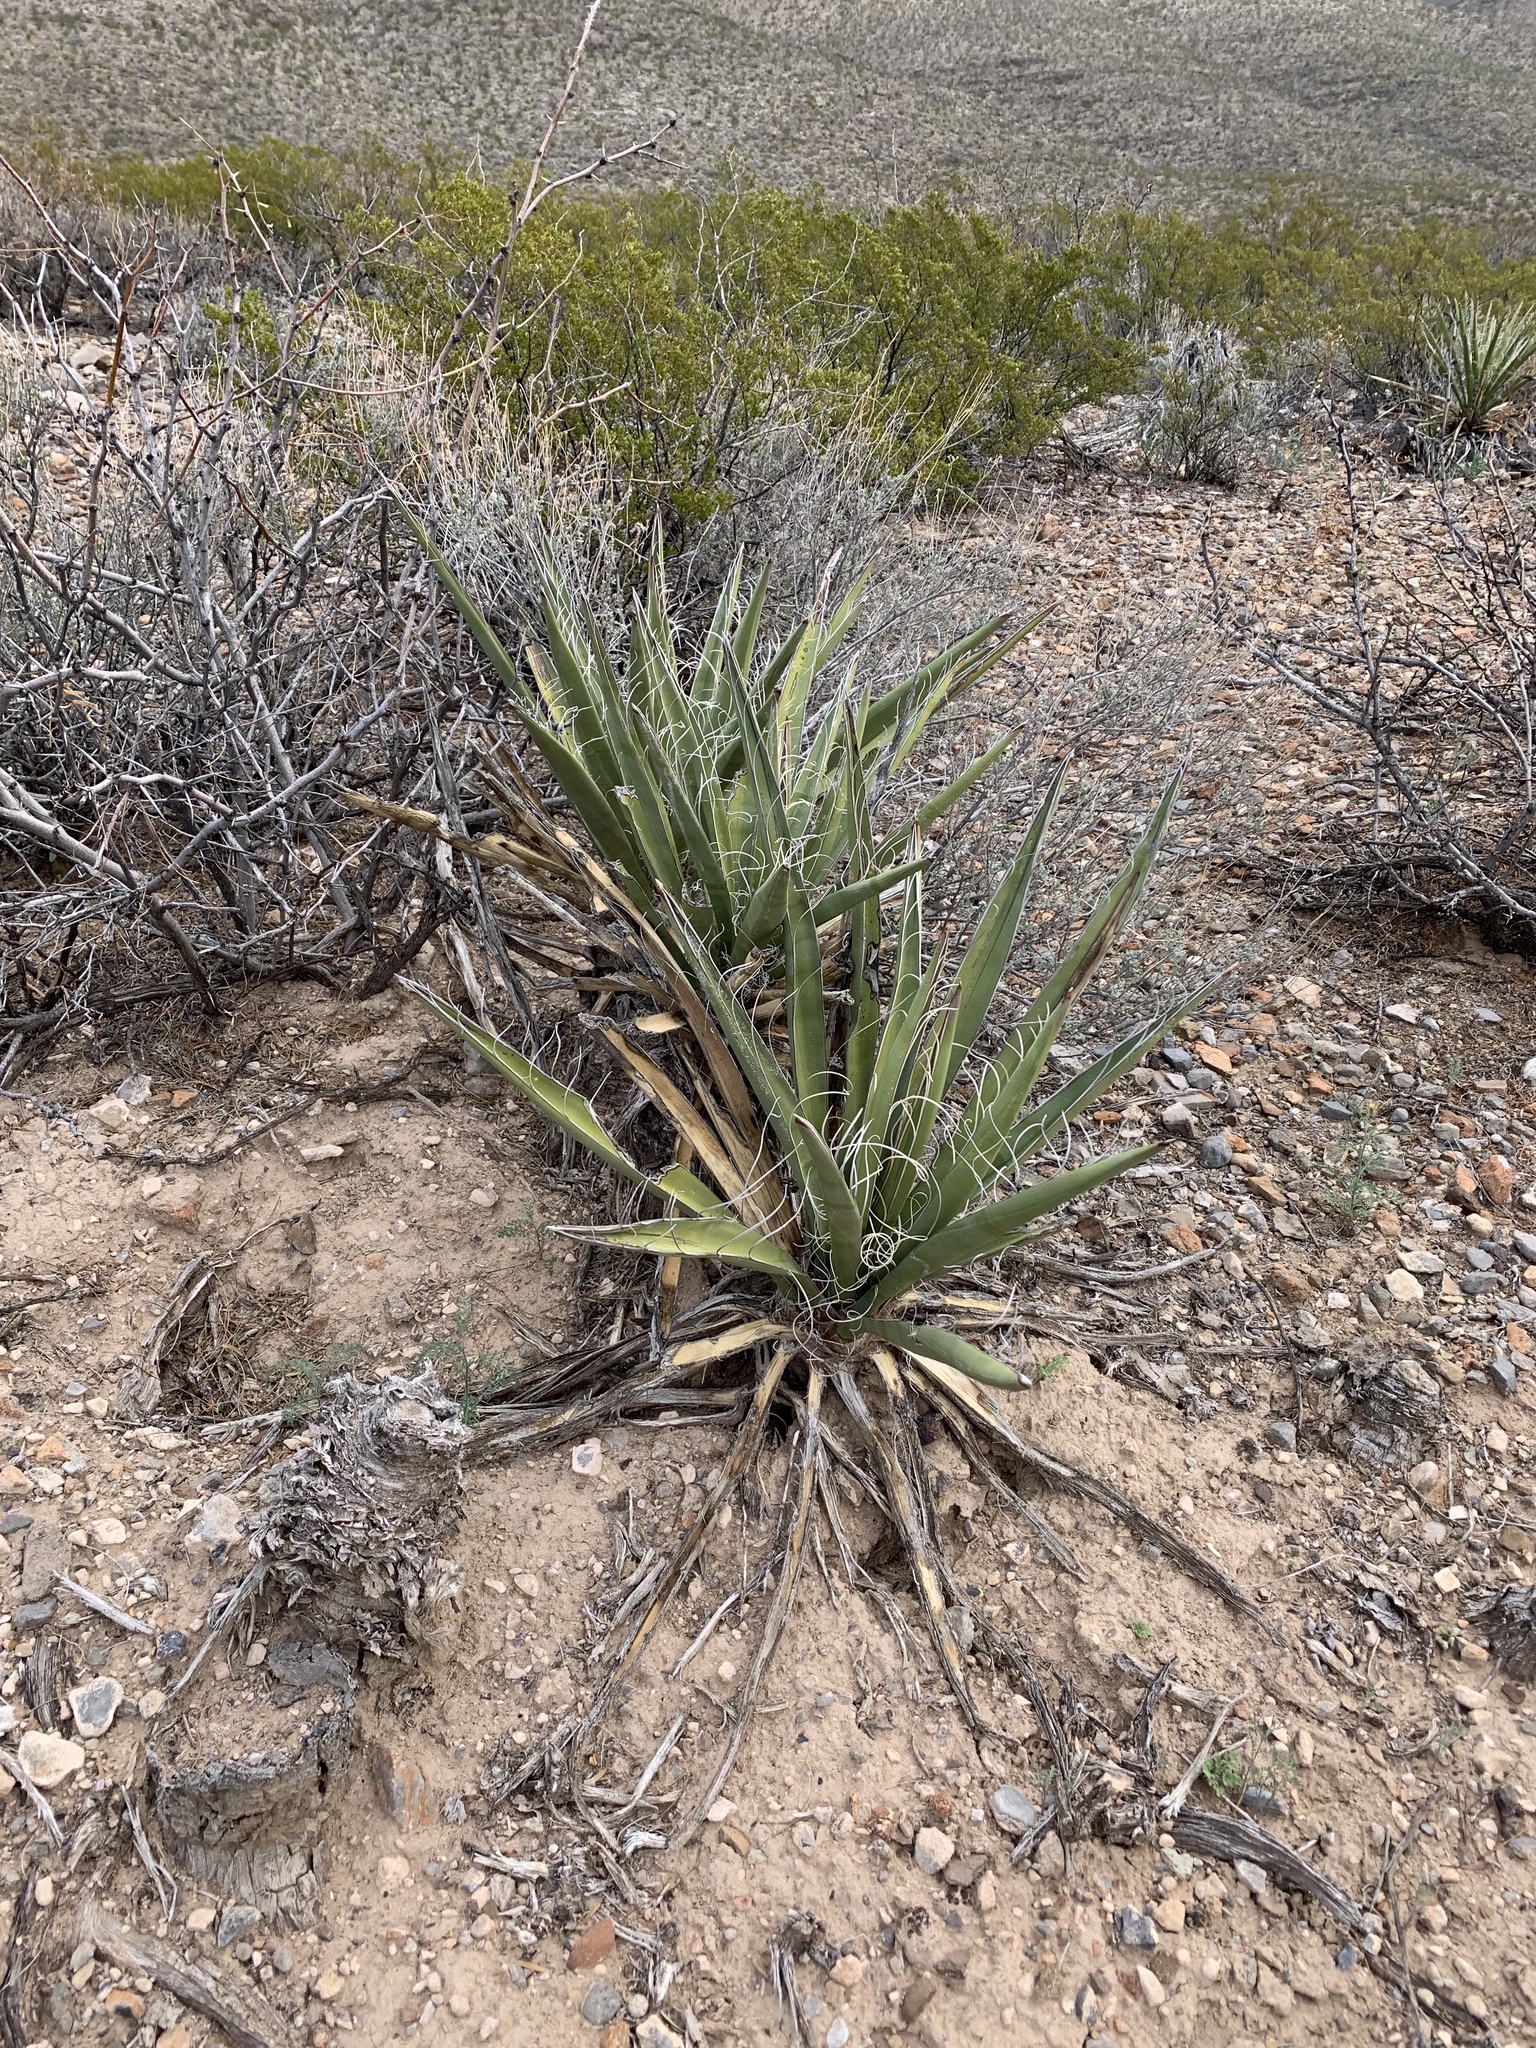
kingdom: Plantae
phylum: Tracheophyta
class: Liliopsida
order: Asparagales
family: Asparagaceae
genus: Yucca
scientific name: Yucca baccata
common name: Banana yucca
